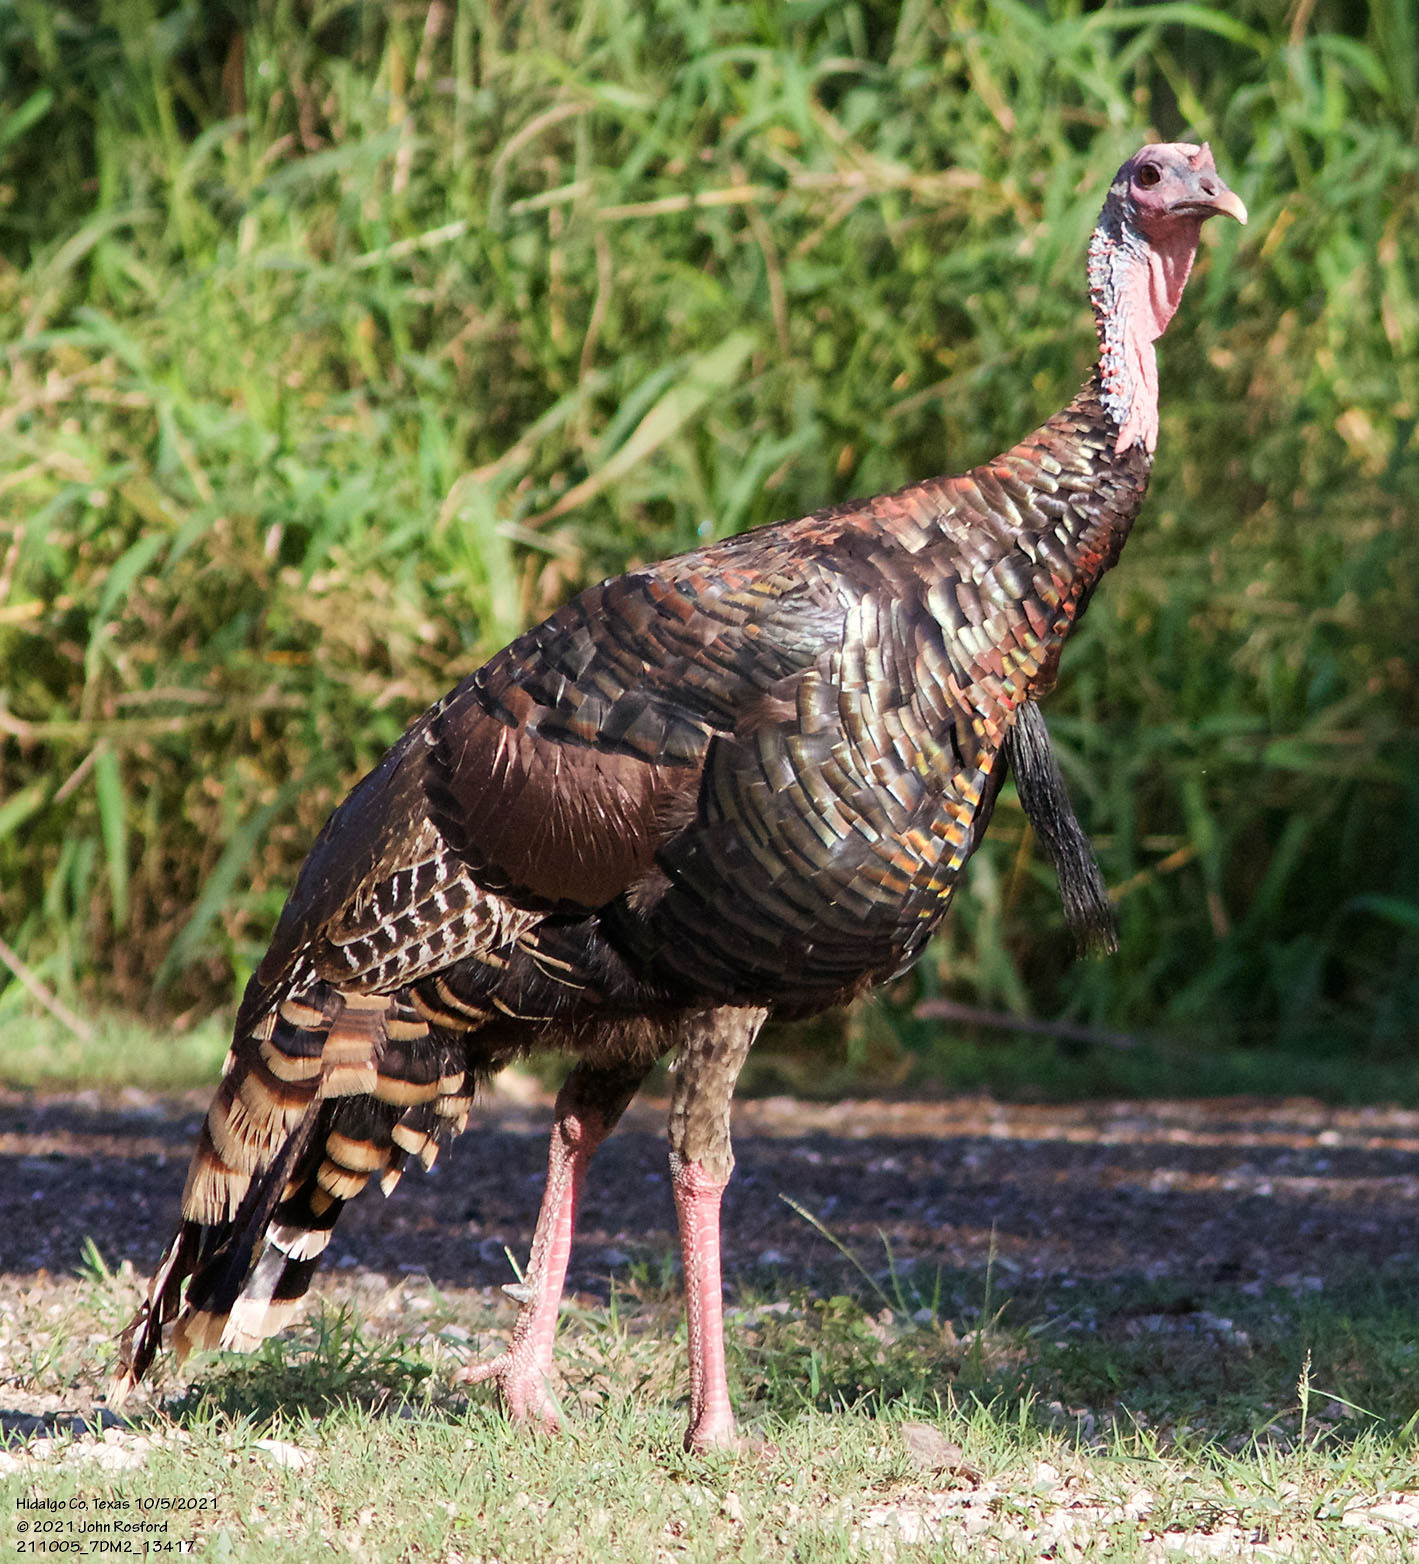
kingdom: Animalia
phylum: Chordata
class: Aves
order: Galliformes
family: Phasianidae
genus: Meleagris
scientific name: Meleagris gallopavo
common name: Wild turkey
